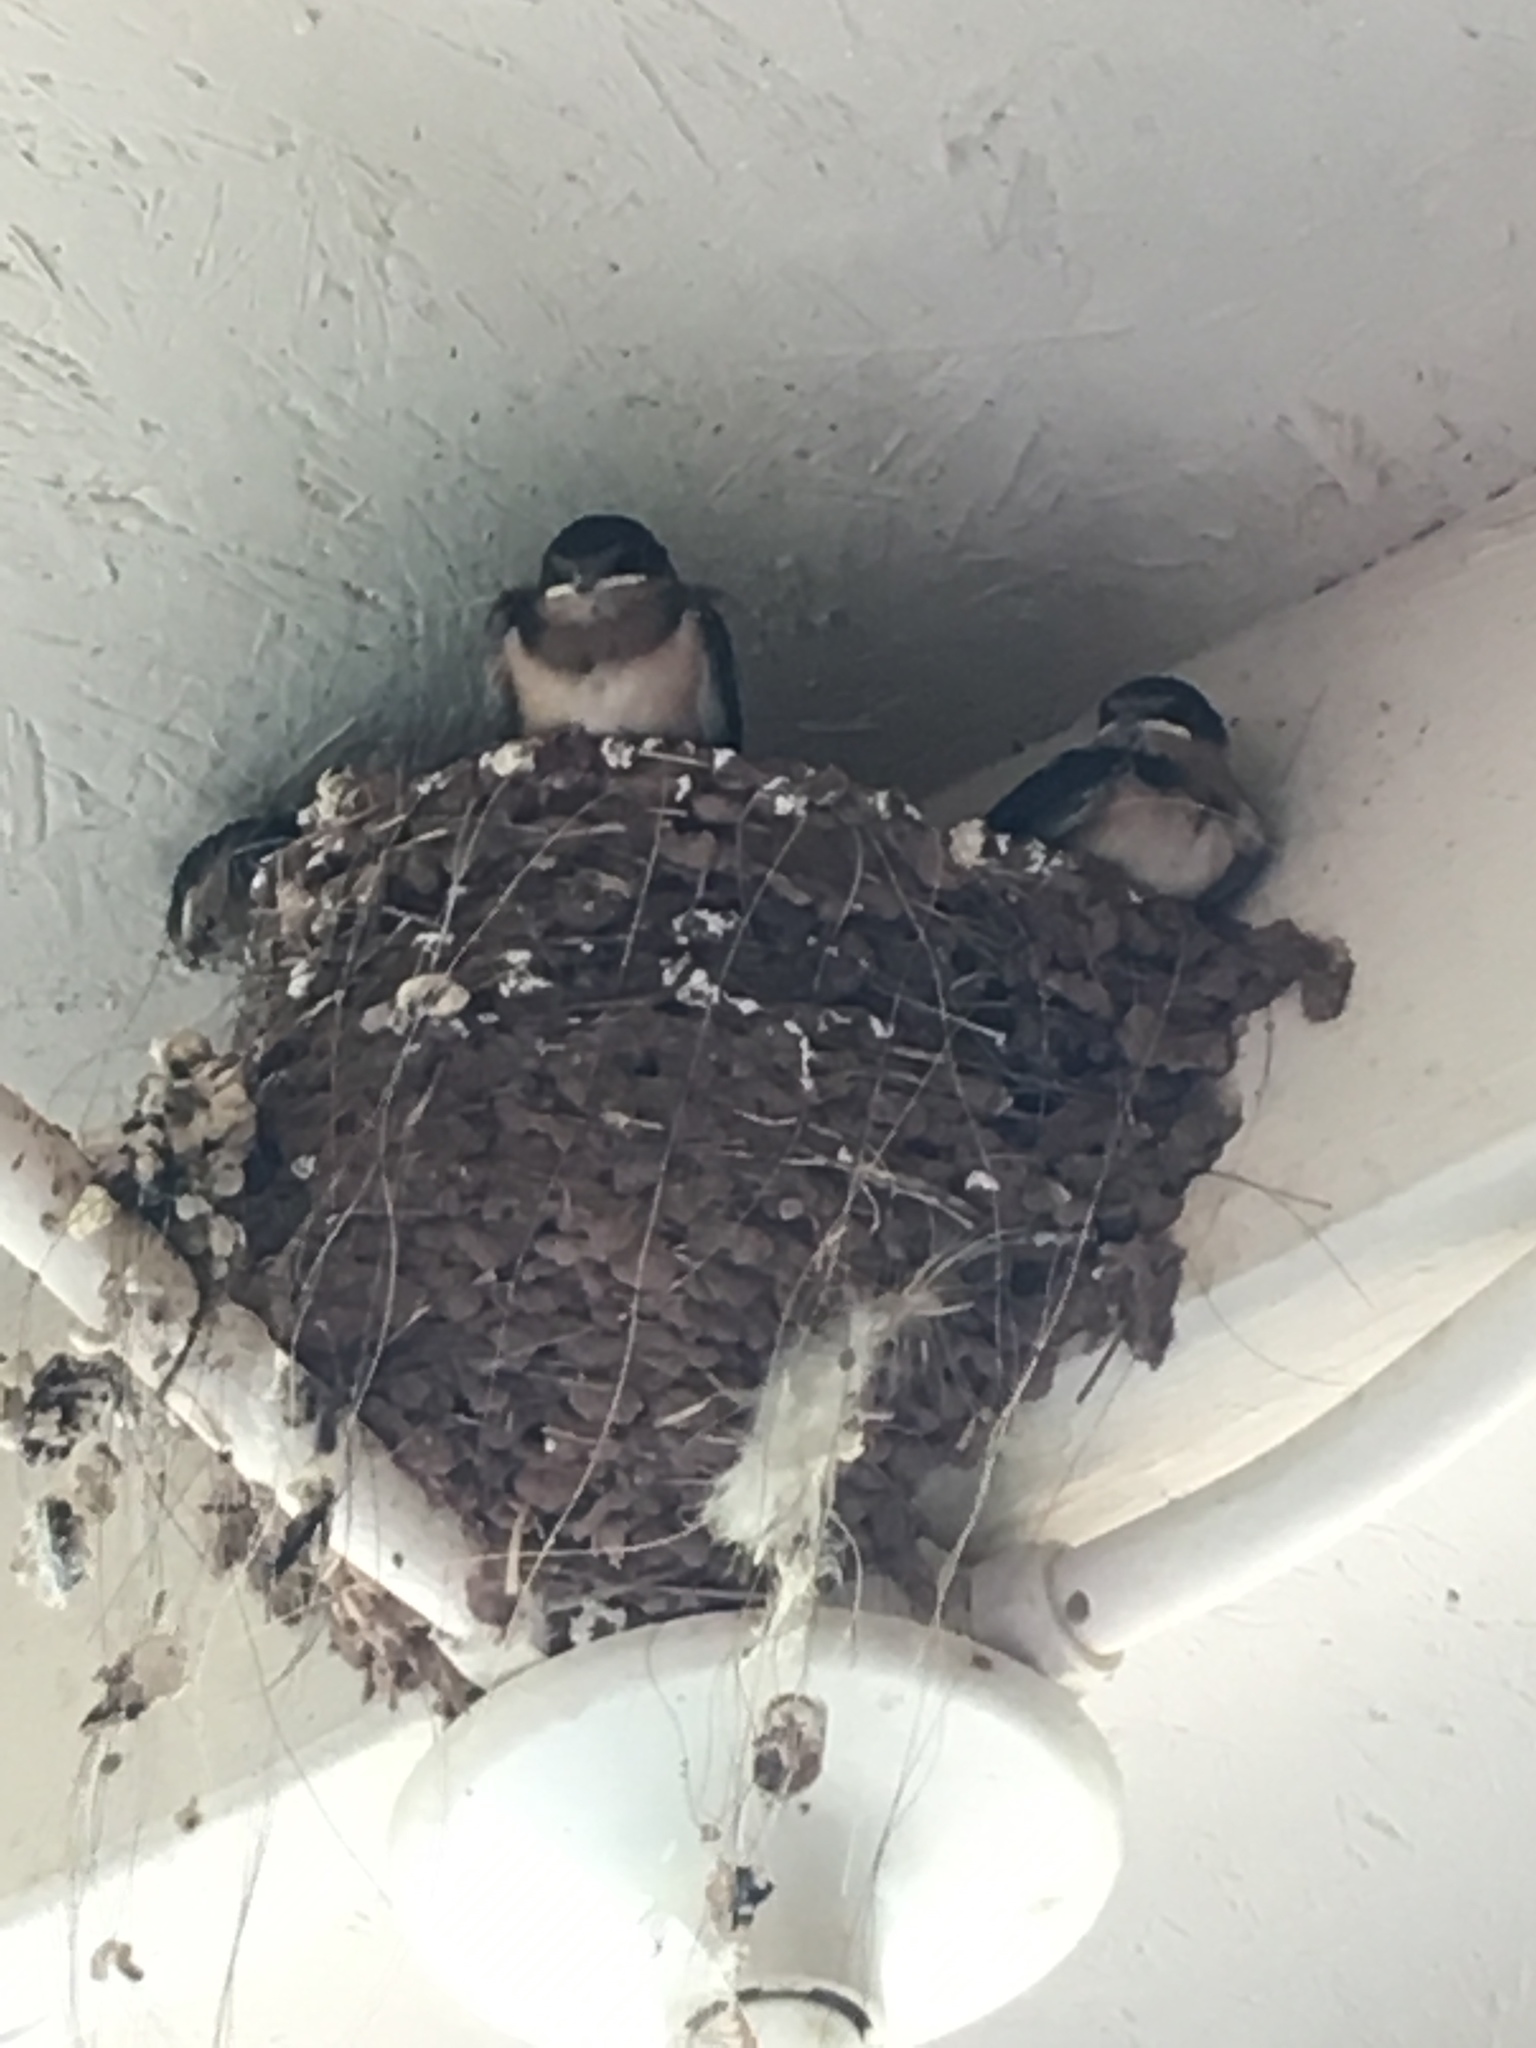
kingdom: Animalia
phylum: Chordata
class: Aves
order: Passeriformes
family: Hirundinidae
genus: Hirundo
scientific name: Hirundo rustica
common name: Barn swallow
